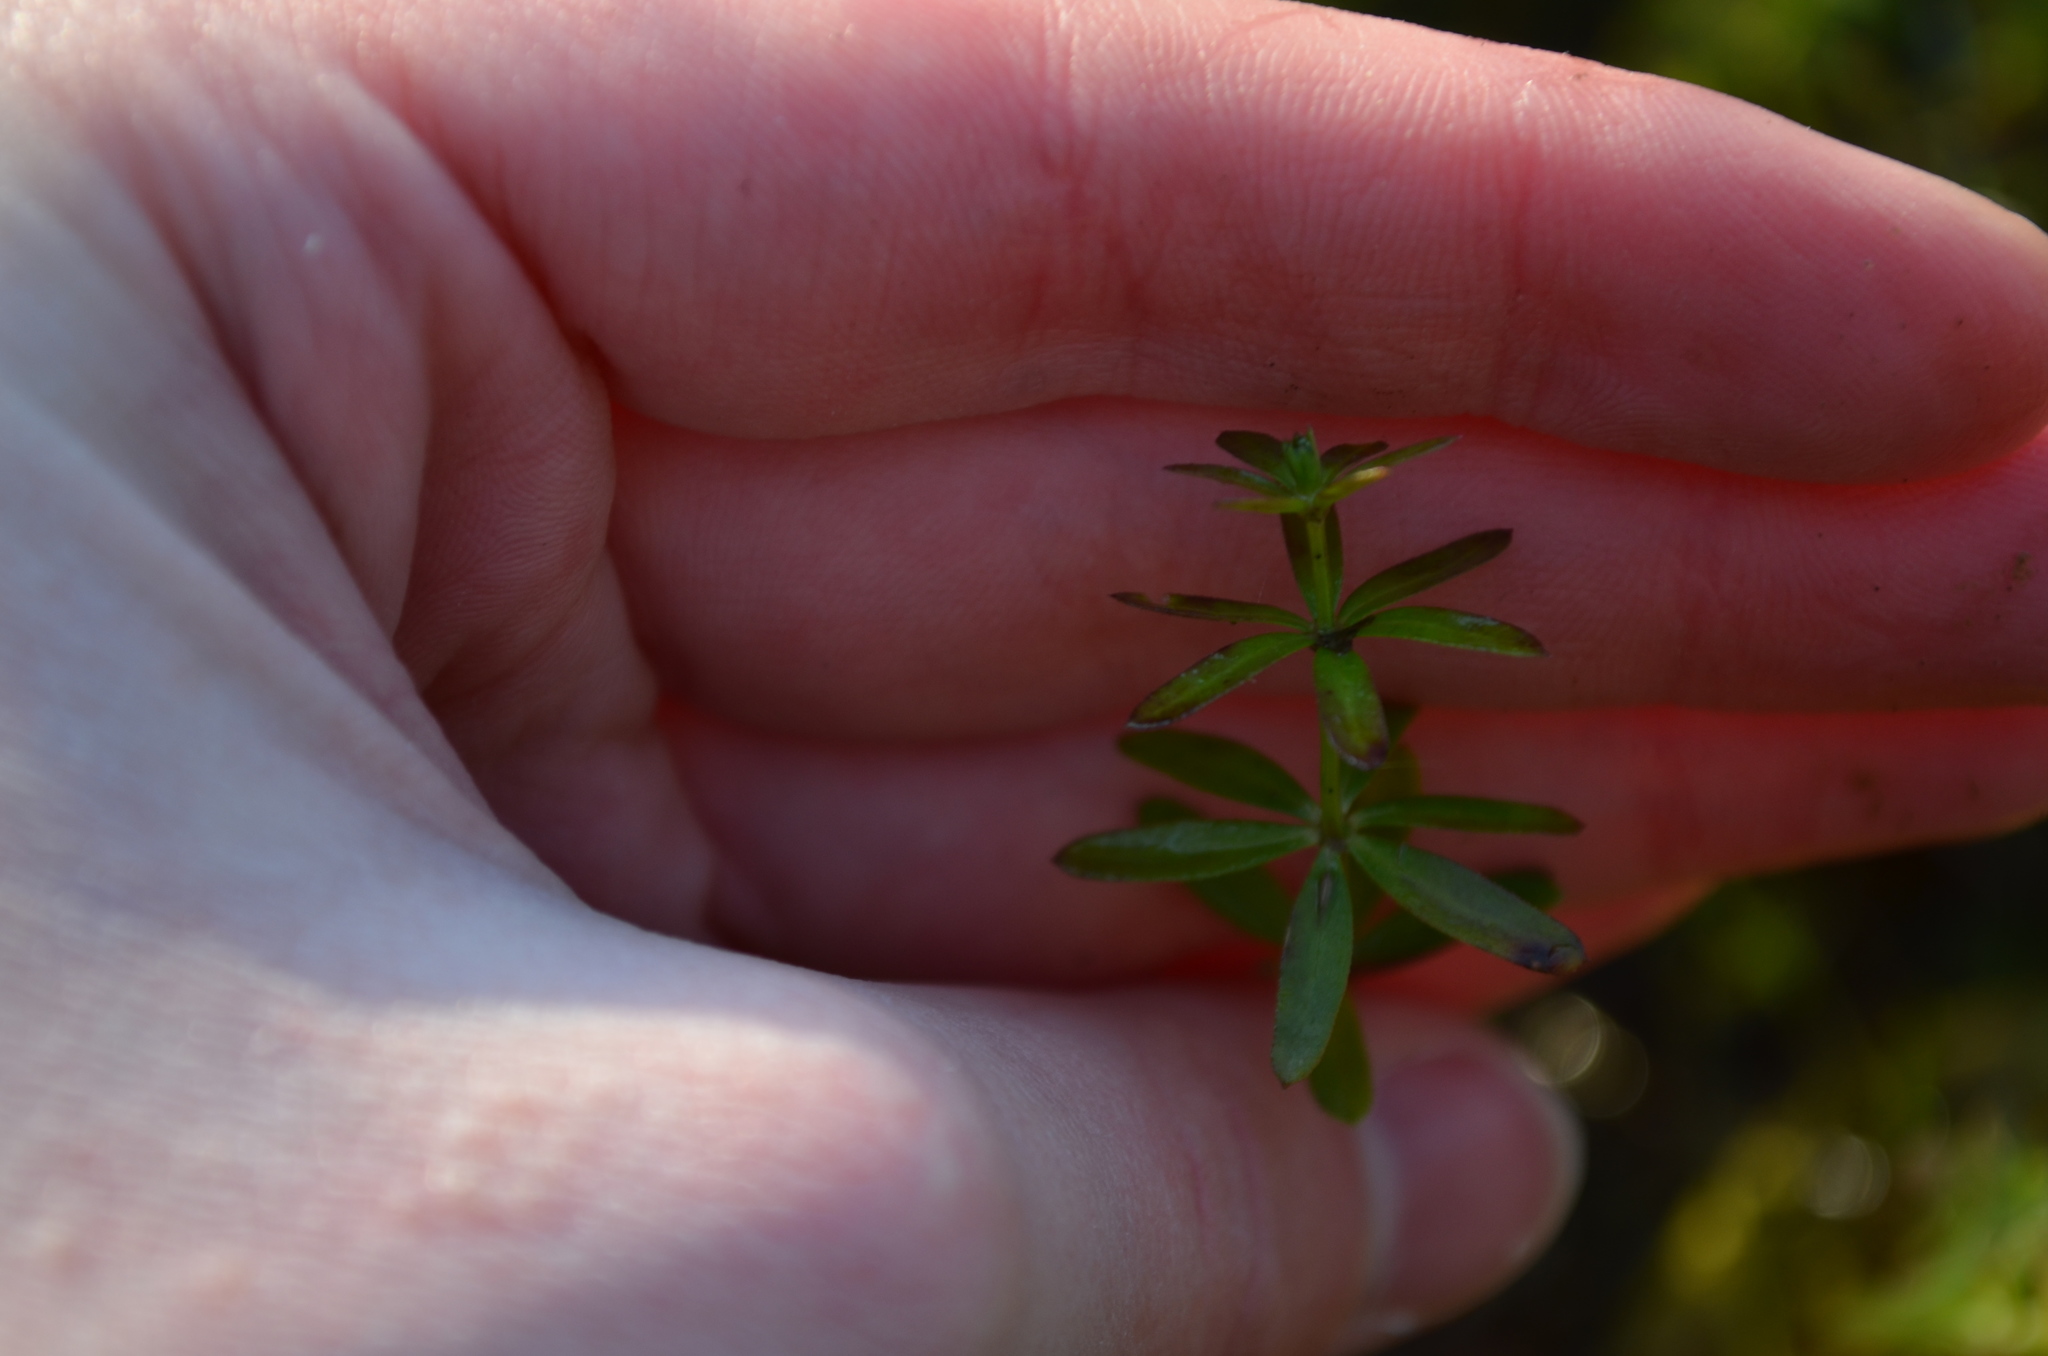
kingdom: Plantae
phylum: Tracheophyta
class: Magnoliopsida
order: Gentianales
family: Rubiaceae
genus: Galium
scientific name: Galium mollugo
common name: Hedge bedstraw
